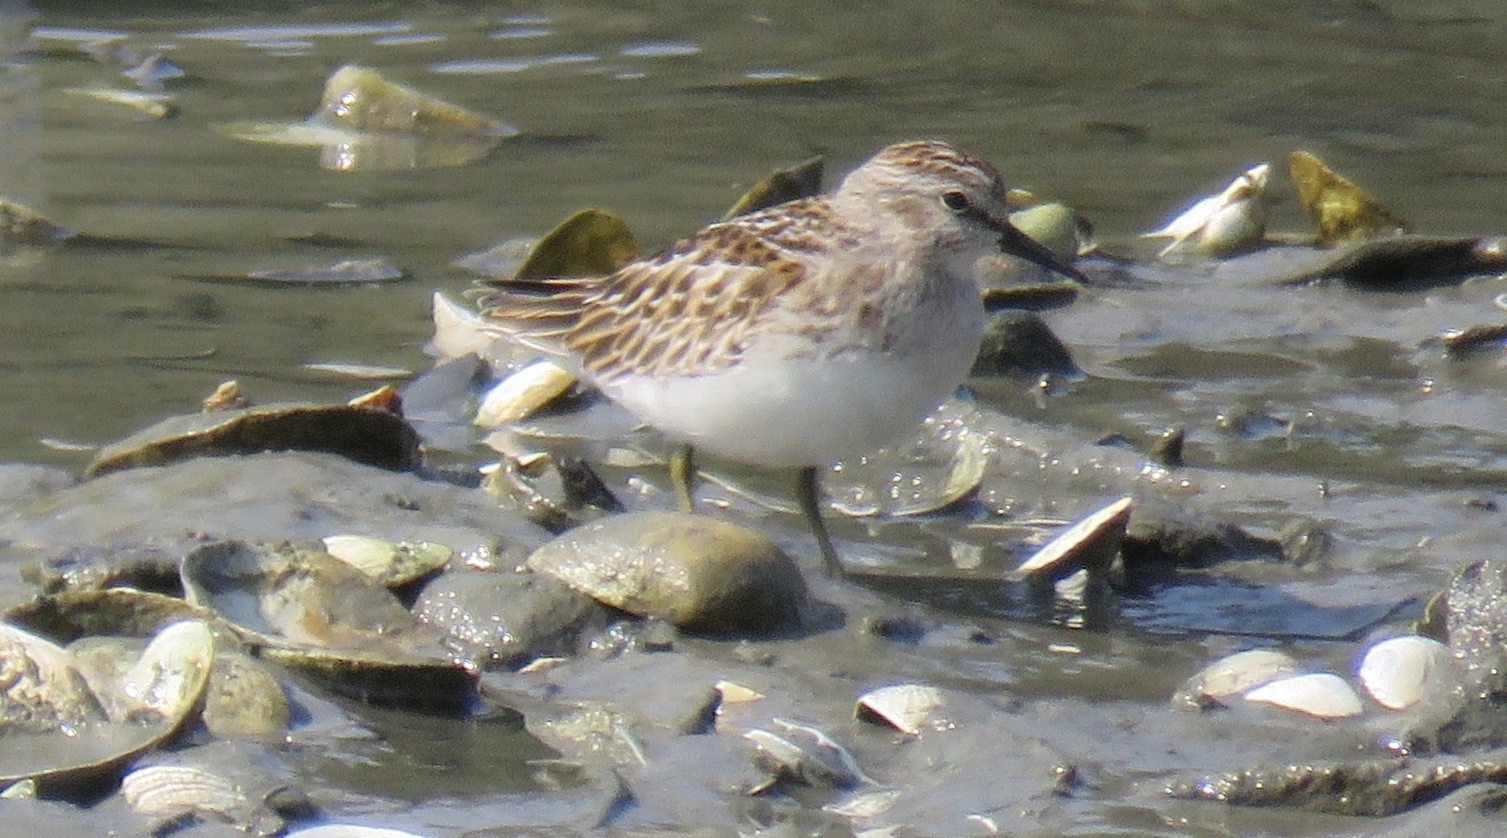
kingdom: Animalia
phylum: Chordata
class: Aves
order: Charadriiformes
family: Scolopacidae
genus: Calidris
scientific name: Calidris minutilla
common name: Least sandpiper
